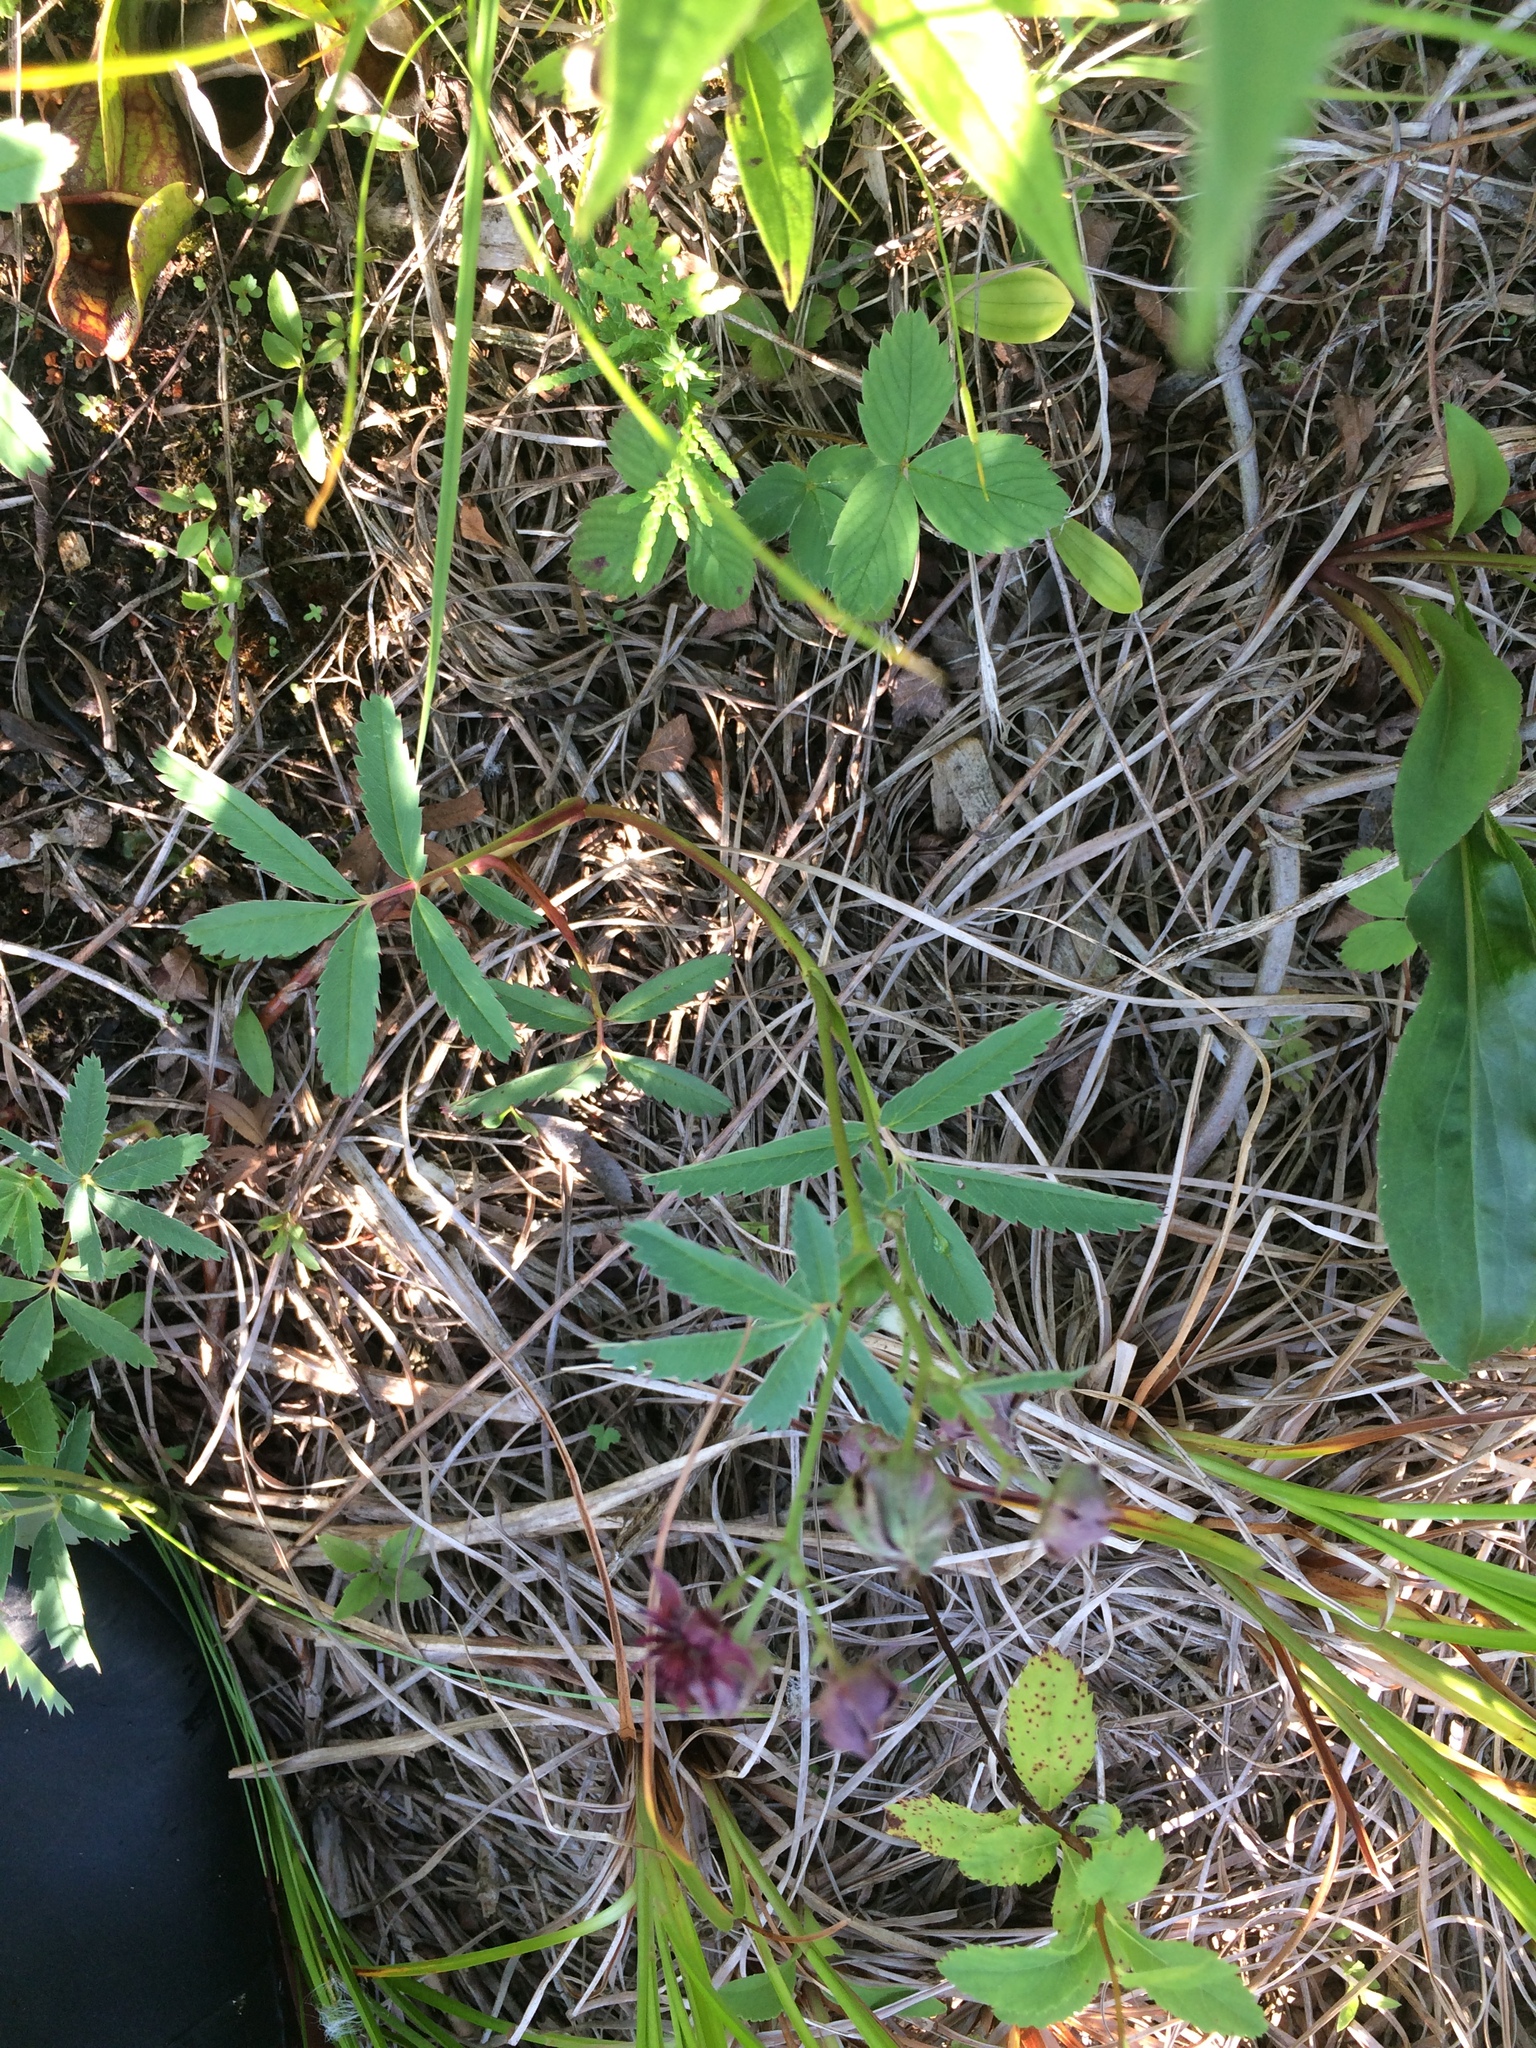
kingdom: Plantae
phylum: Tracheophyta
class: Magnoliopsida
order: Rosales
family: Rosaceae
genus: Comarum
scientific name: Comarum palustre
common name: Marsh cinquefoil
